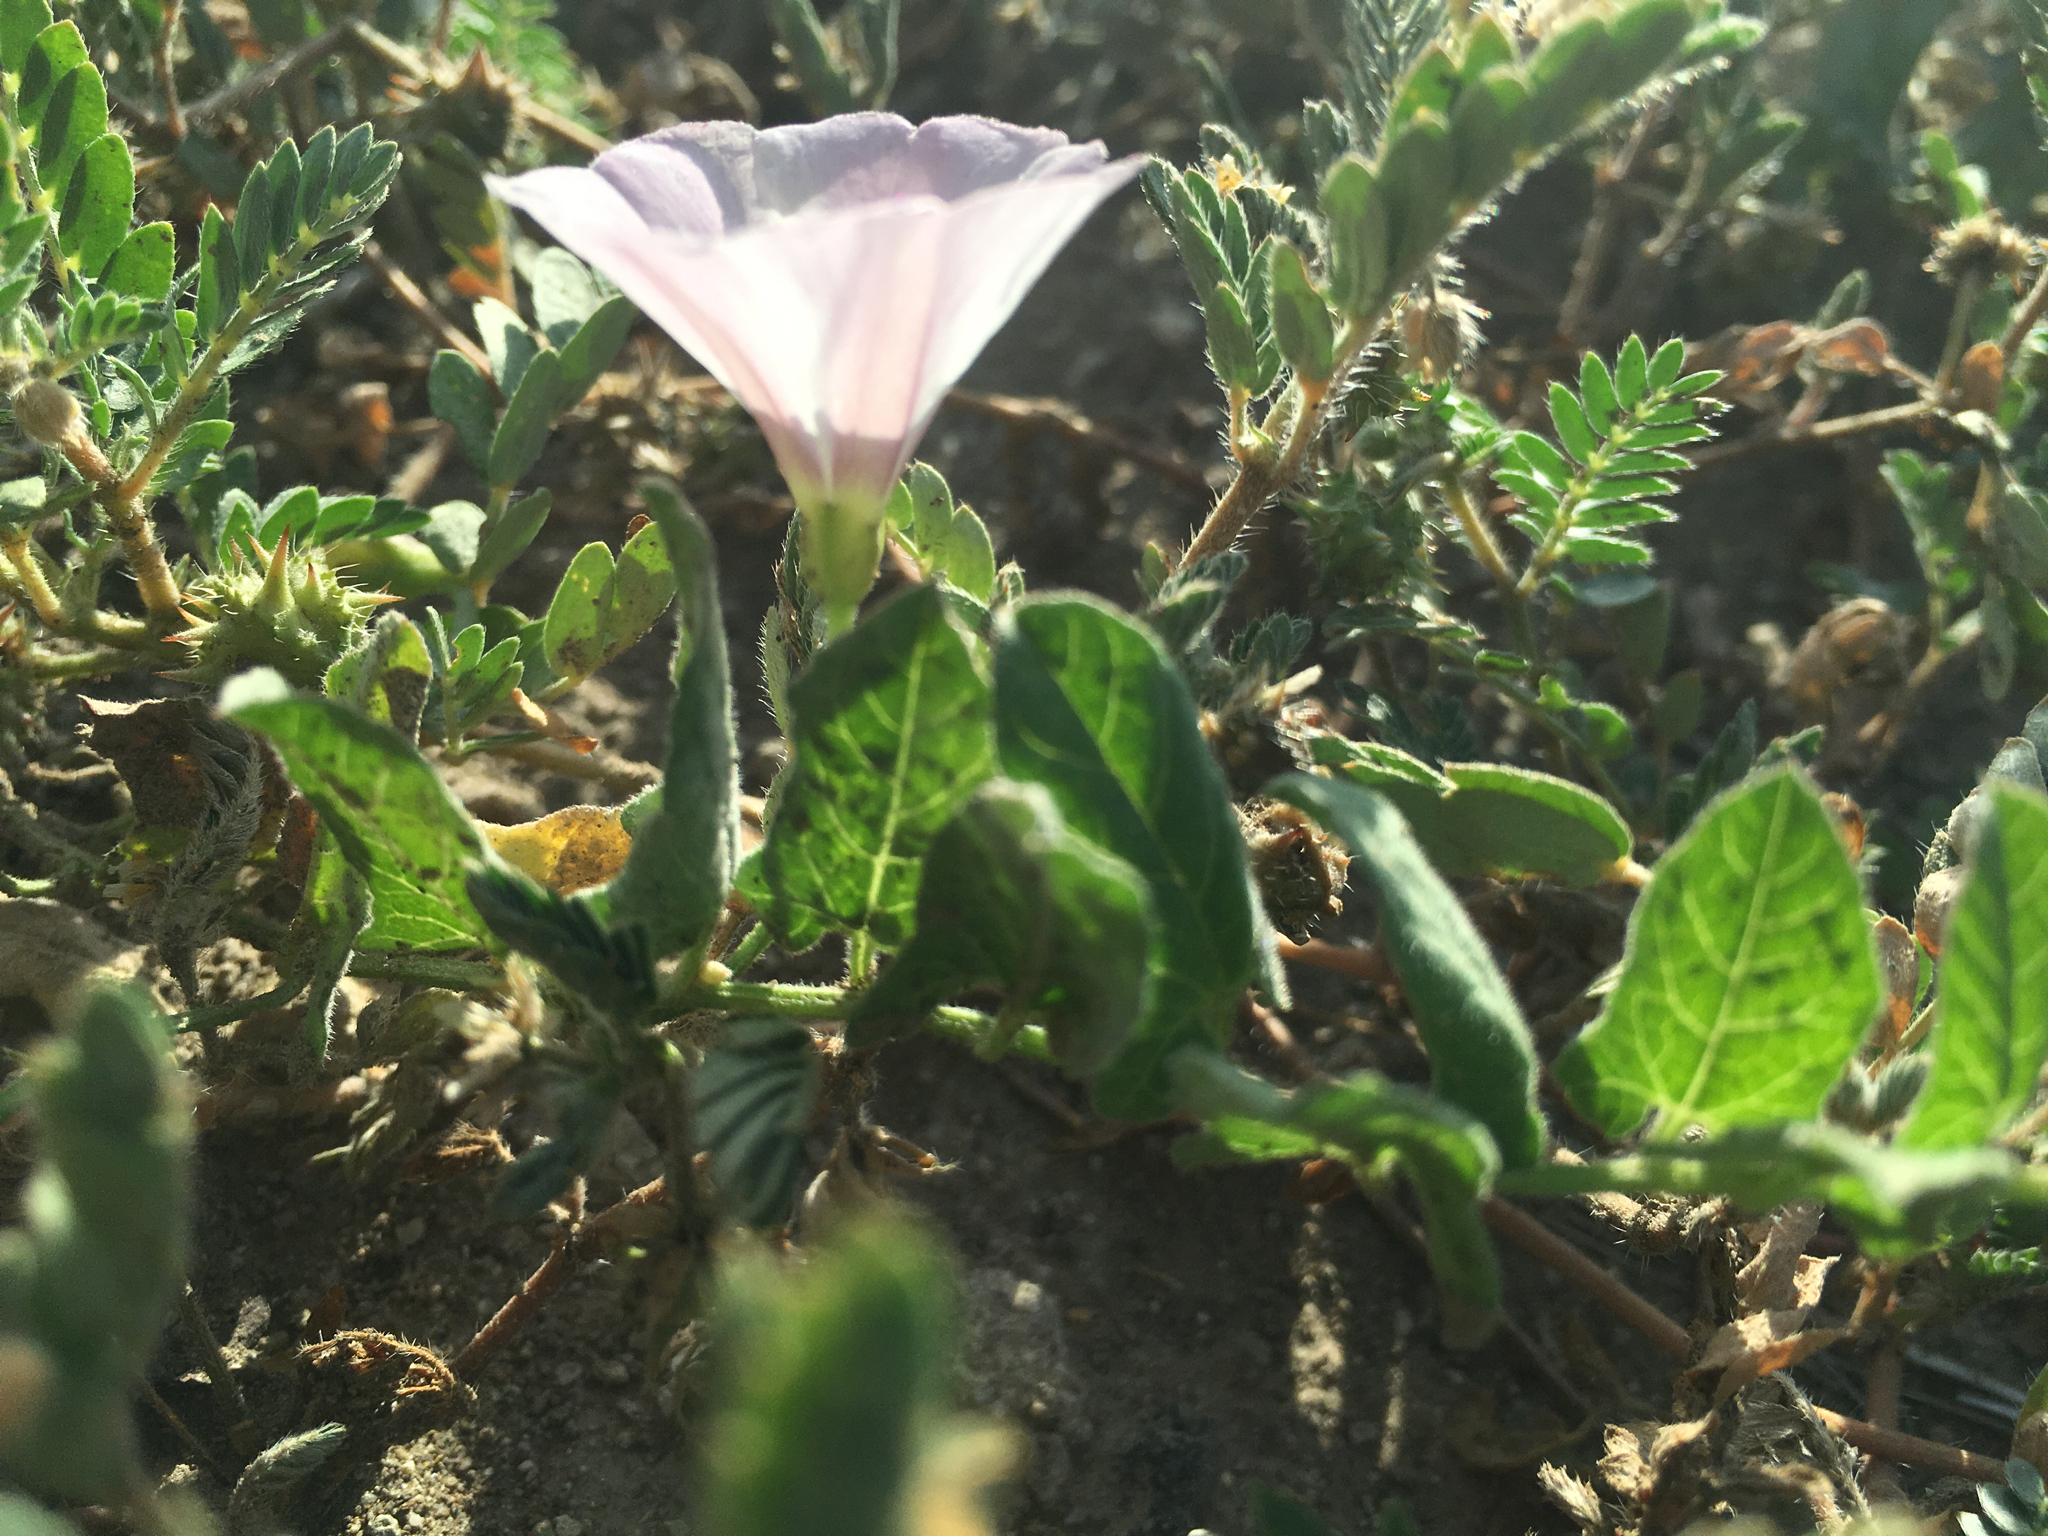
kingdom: Plantae
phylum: Tracheophyta
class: Magnoliopsida
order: Solanales
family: Convolvulaceae
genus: Convolvulus
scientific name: Convolvulus arvensis
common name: Field bindweed
